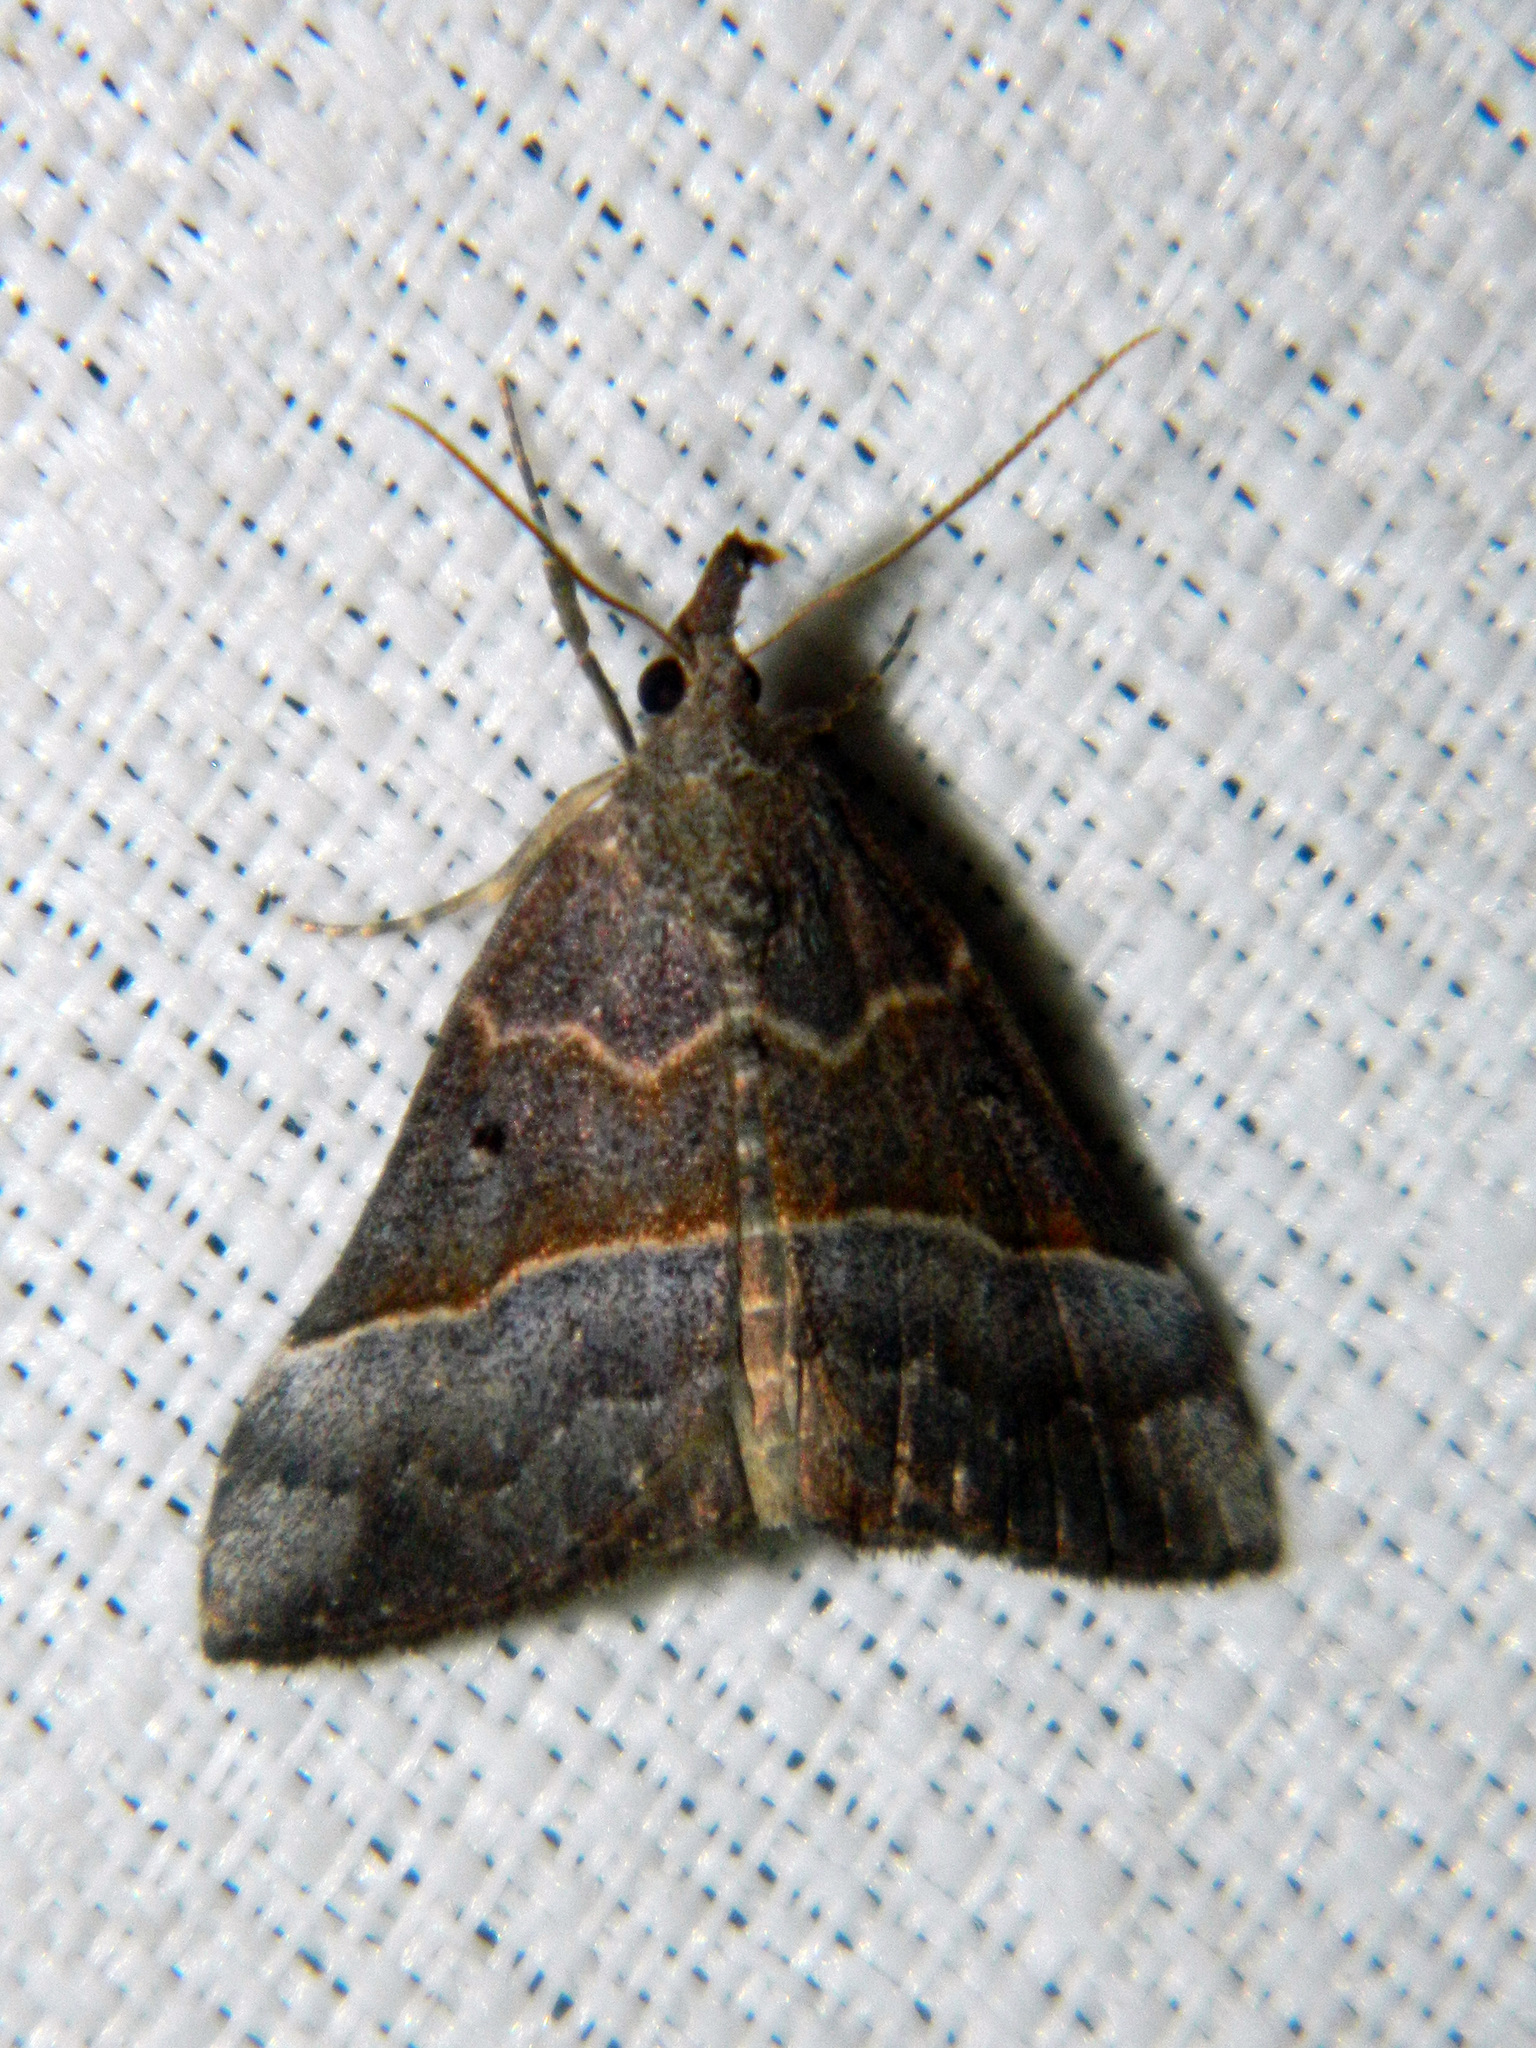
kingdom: Animalia
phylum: Arthropoda
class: Insecta
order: Lepidoptera
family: Erebidae
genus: Hypena
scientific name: Hypena eductalis
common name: Red-footed snout
